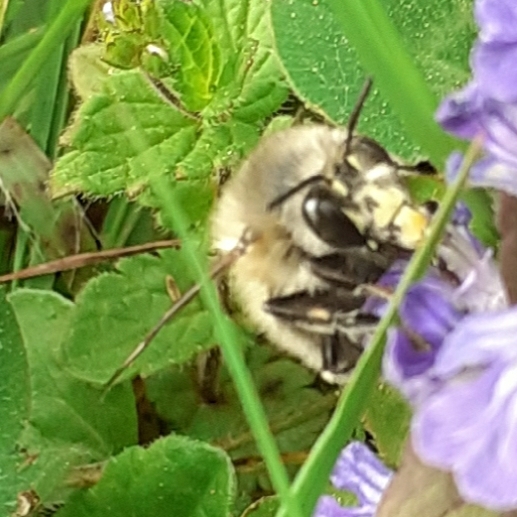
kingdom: Animalia
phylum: Arthropoda
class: Insecta
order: Hymenoptera
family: Apidae
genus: Anthophora
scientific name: Anthophora plumipes
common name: Hairy-footed flower bee
